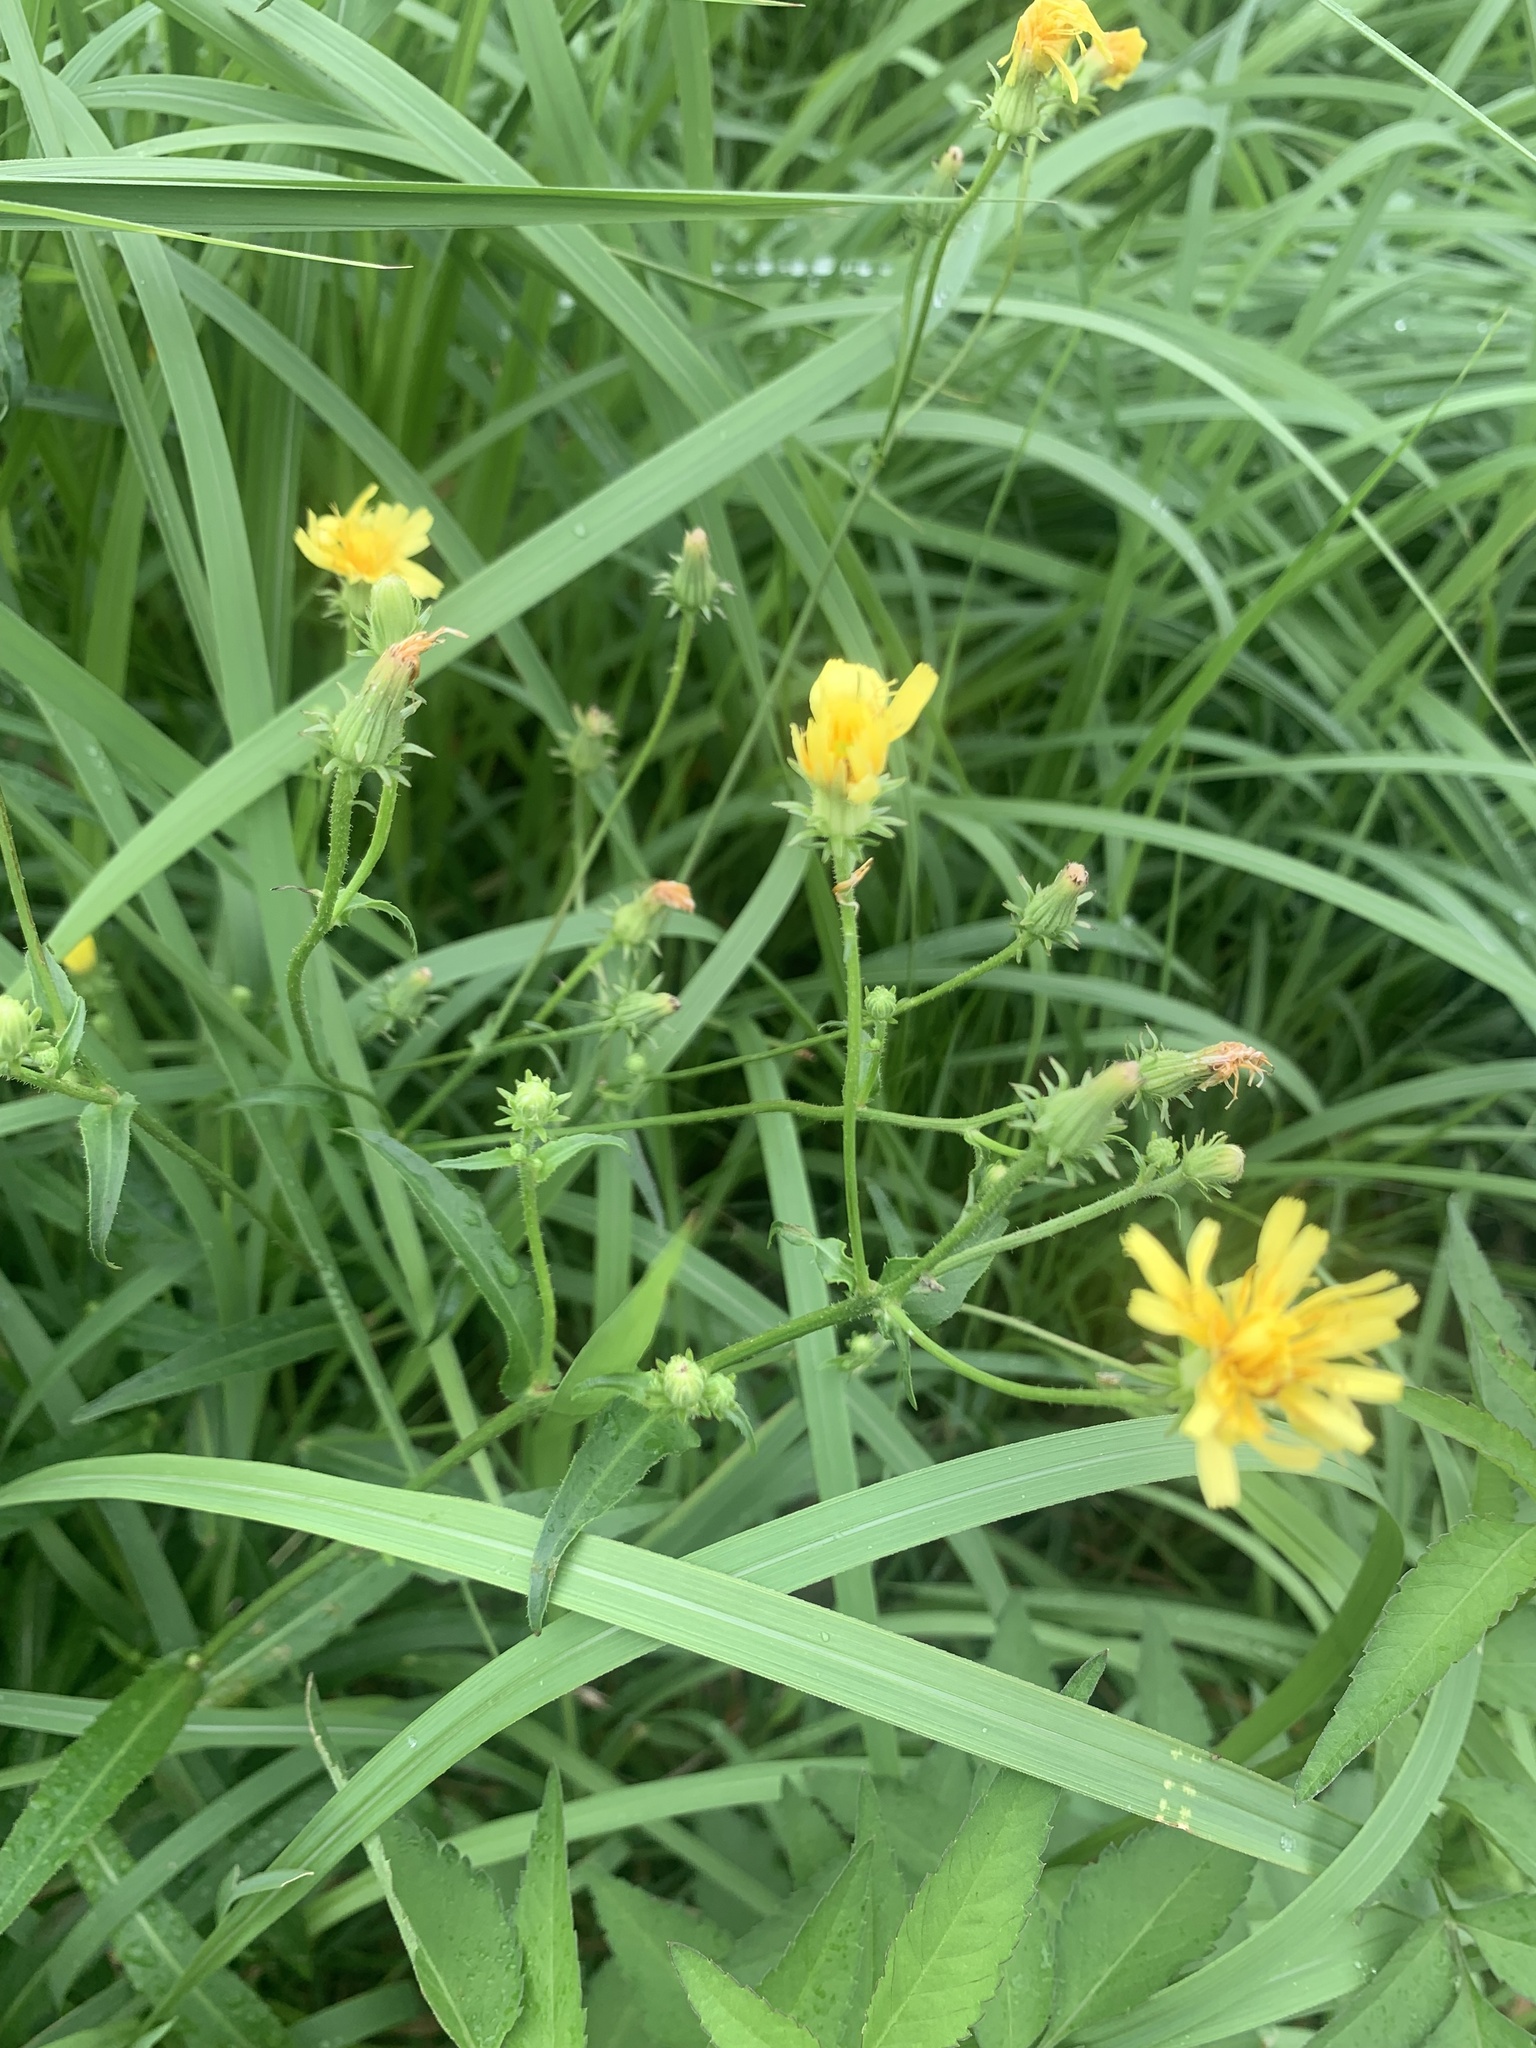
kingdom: Plantae
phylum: Tracheophyta
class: Magnoliopsida
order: Asterales
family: Asteraceae
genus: Picris
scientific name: Picris japonica
